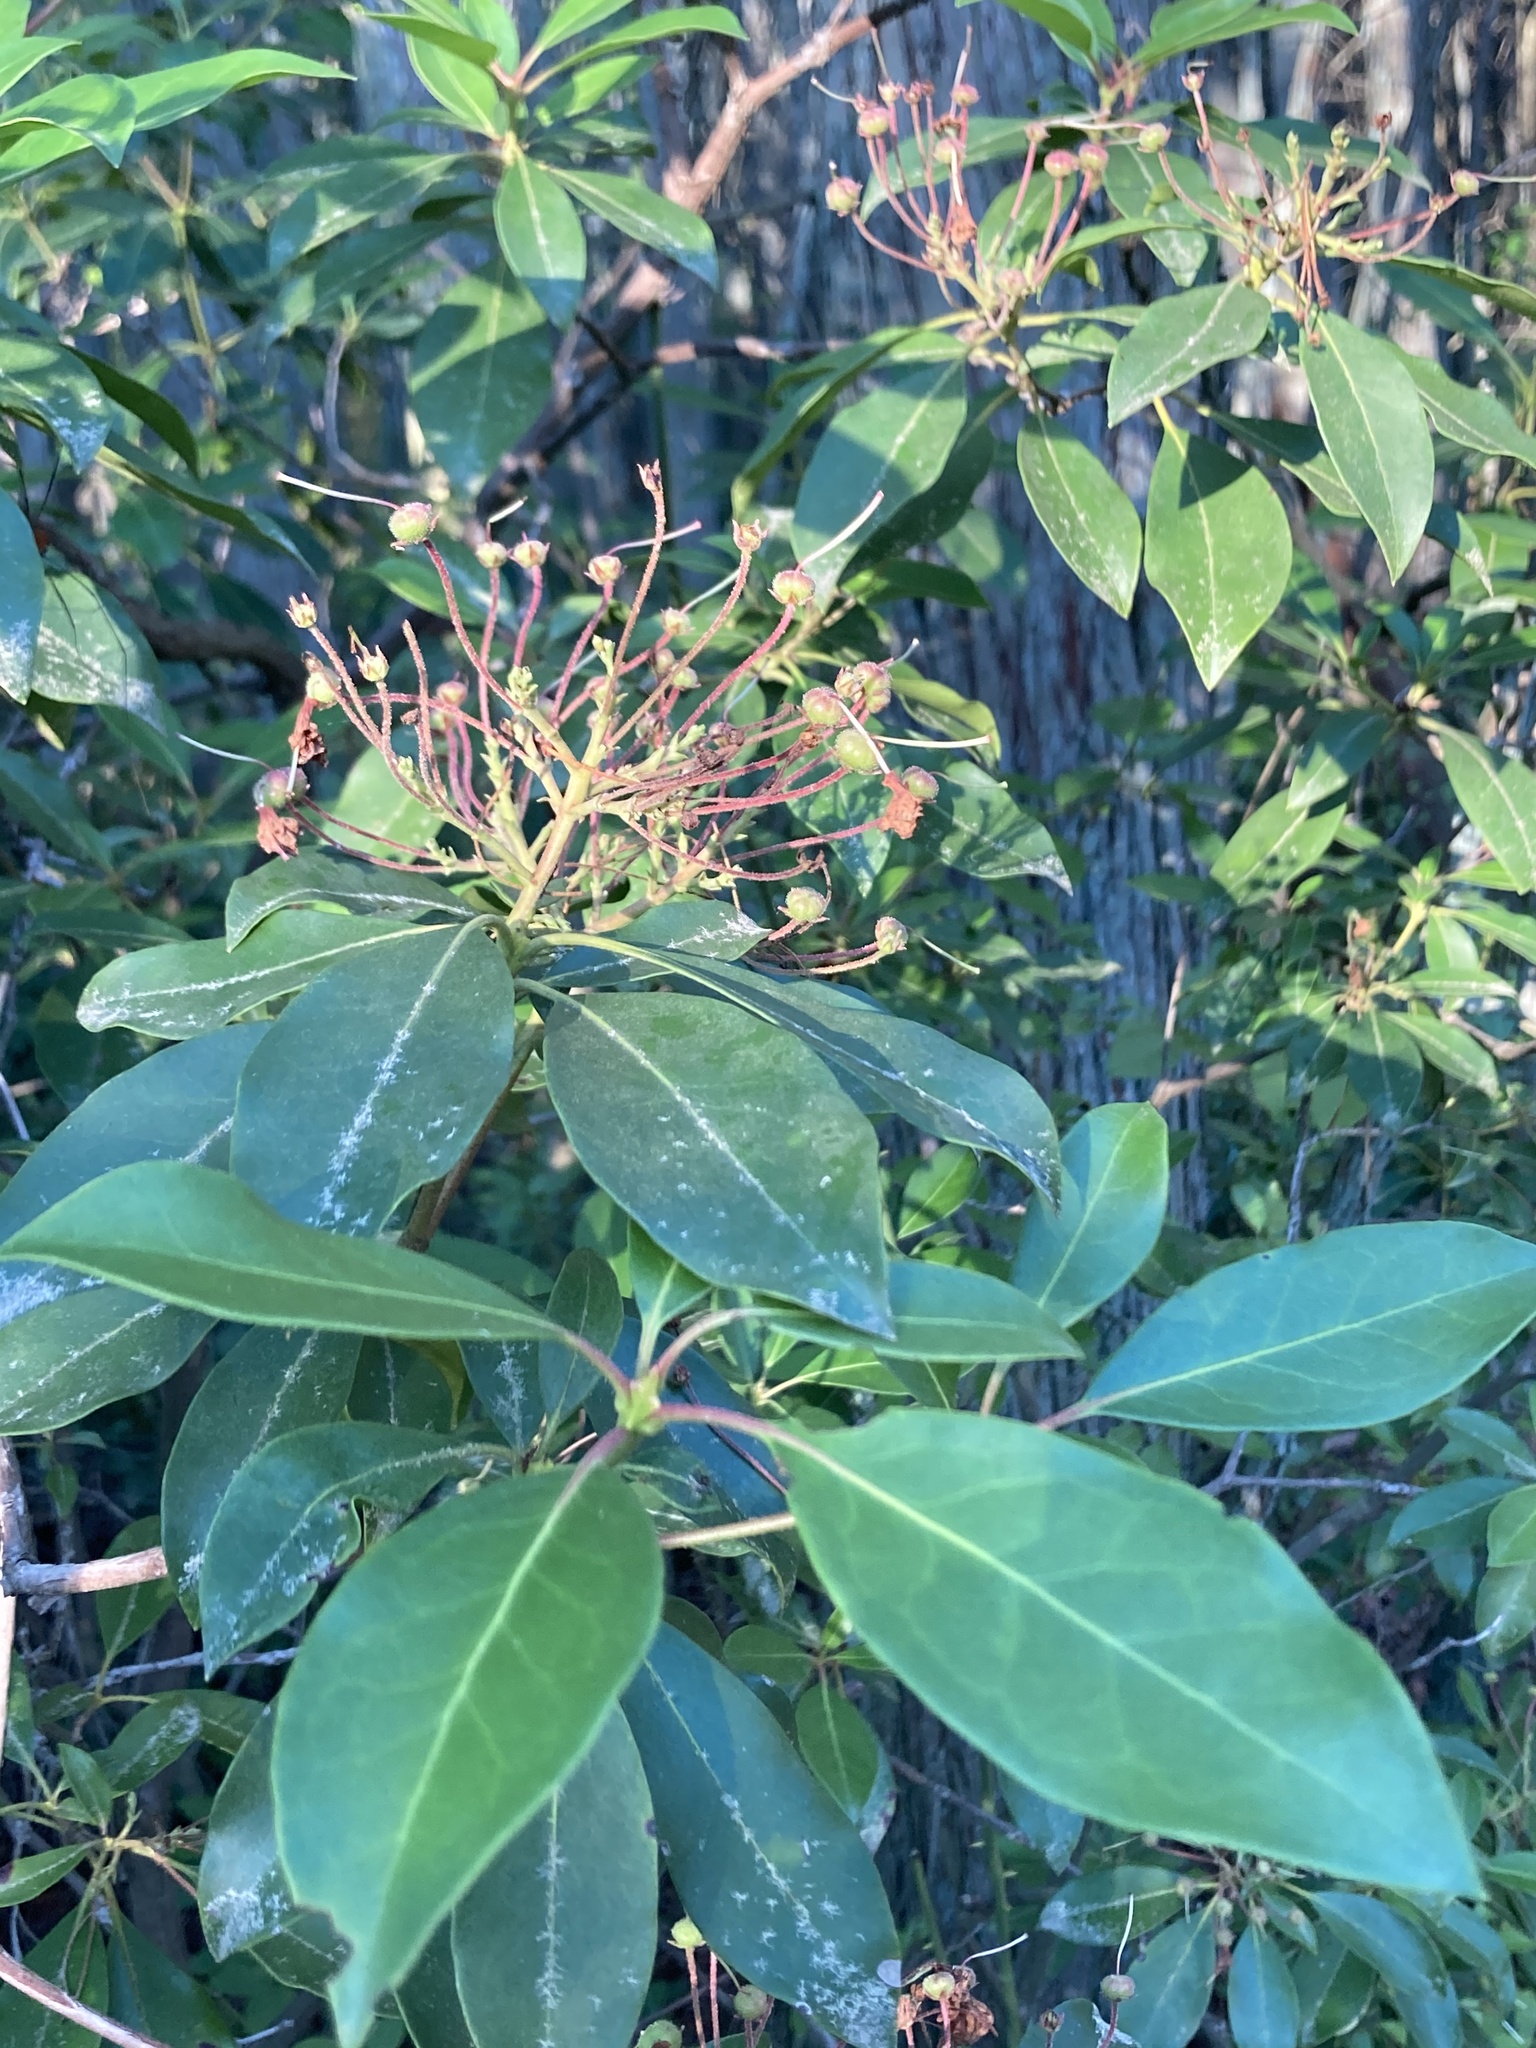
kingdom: Plantae
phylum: Tracheophyta
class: Magnoliopsida
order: Ericales
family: Ericaceae
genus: Kalmia
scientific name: Kalmia latifolia
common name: Mountain-laurel
